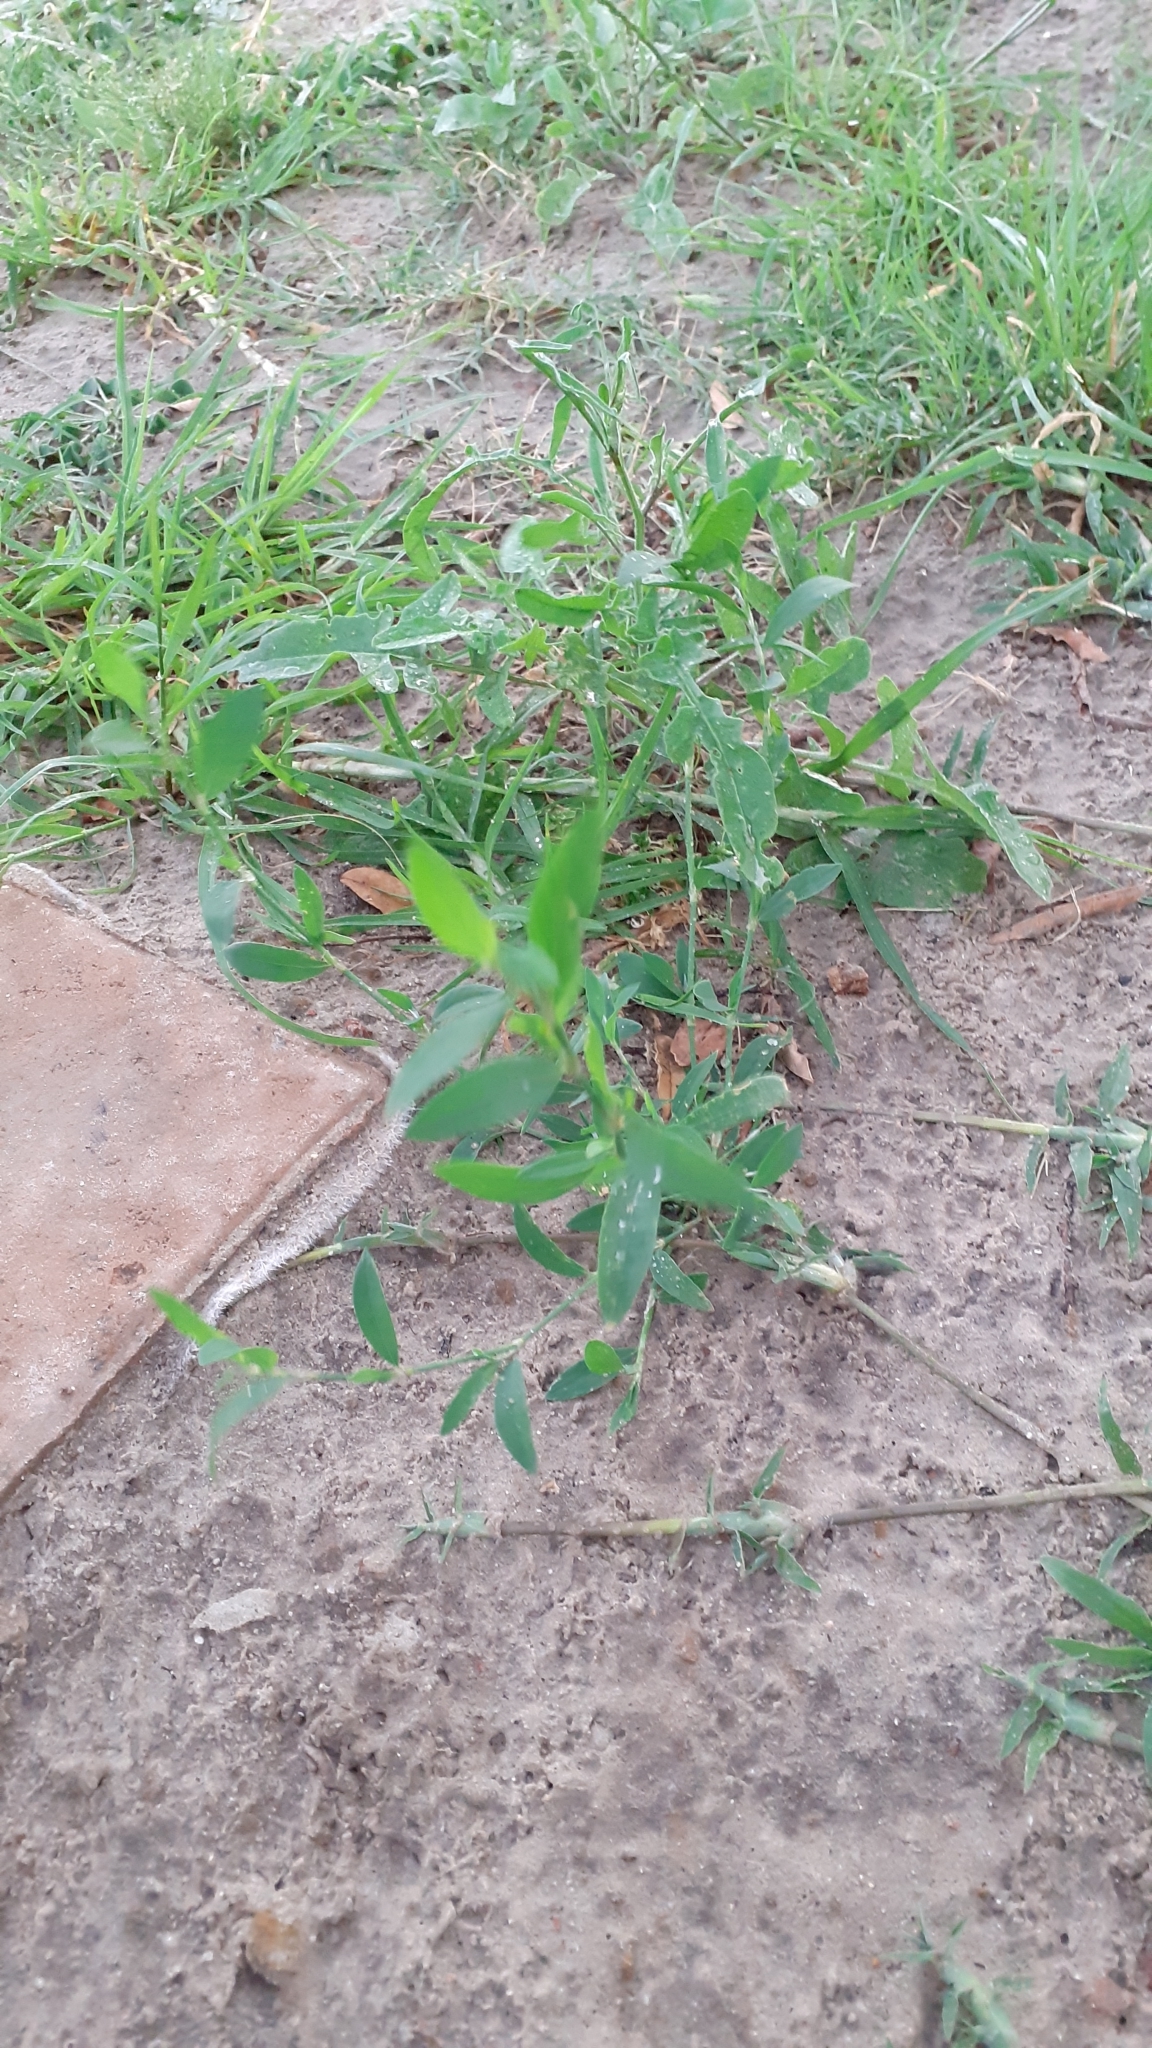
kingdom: Plantae
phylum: Tracheophyta
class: Magnoliopsida
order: Caryophyllales
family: Polygonaceae
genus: Polygonum
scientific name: Polygonum aviculare
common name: Prostrate knotweed
